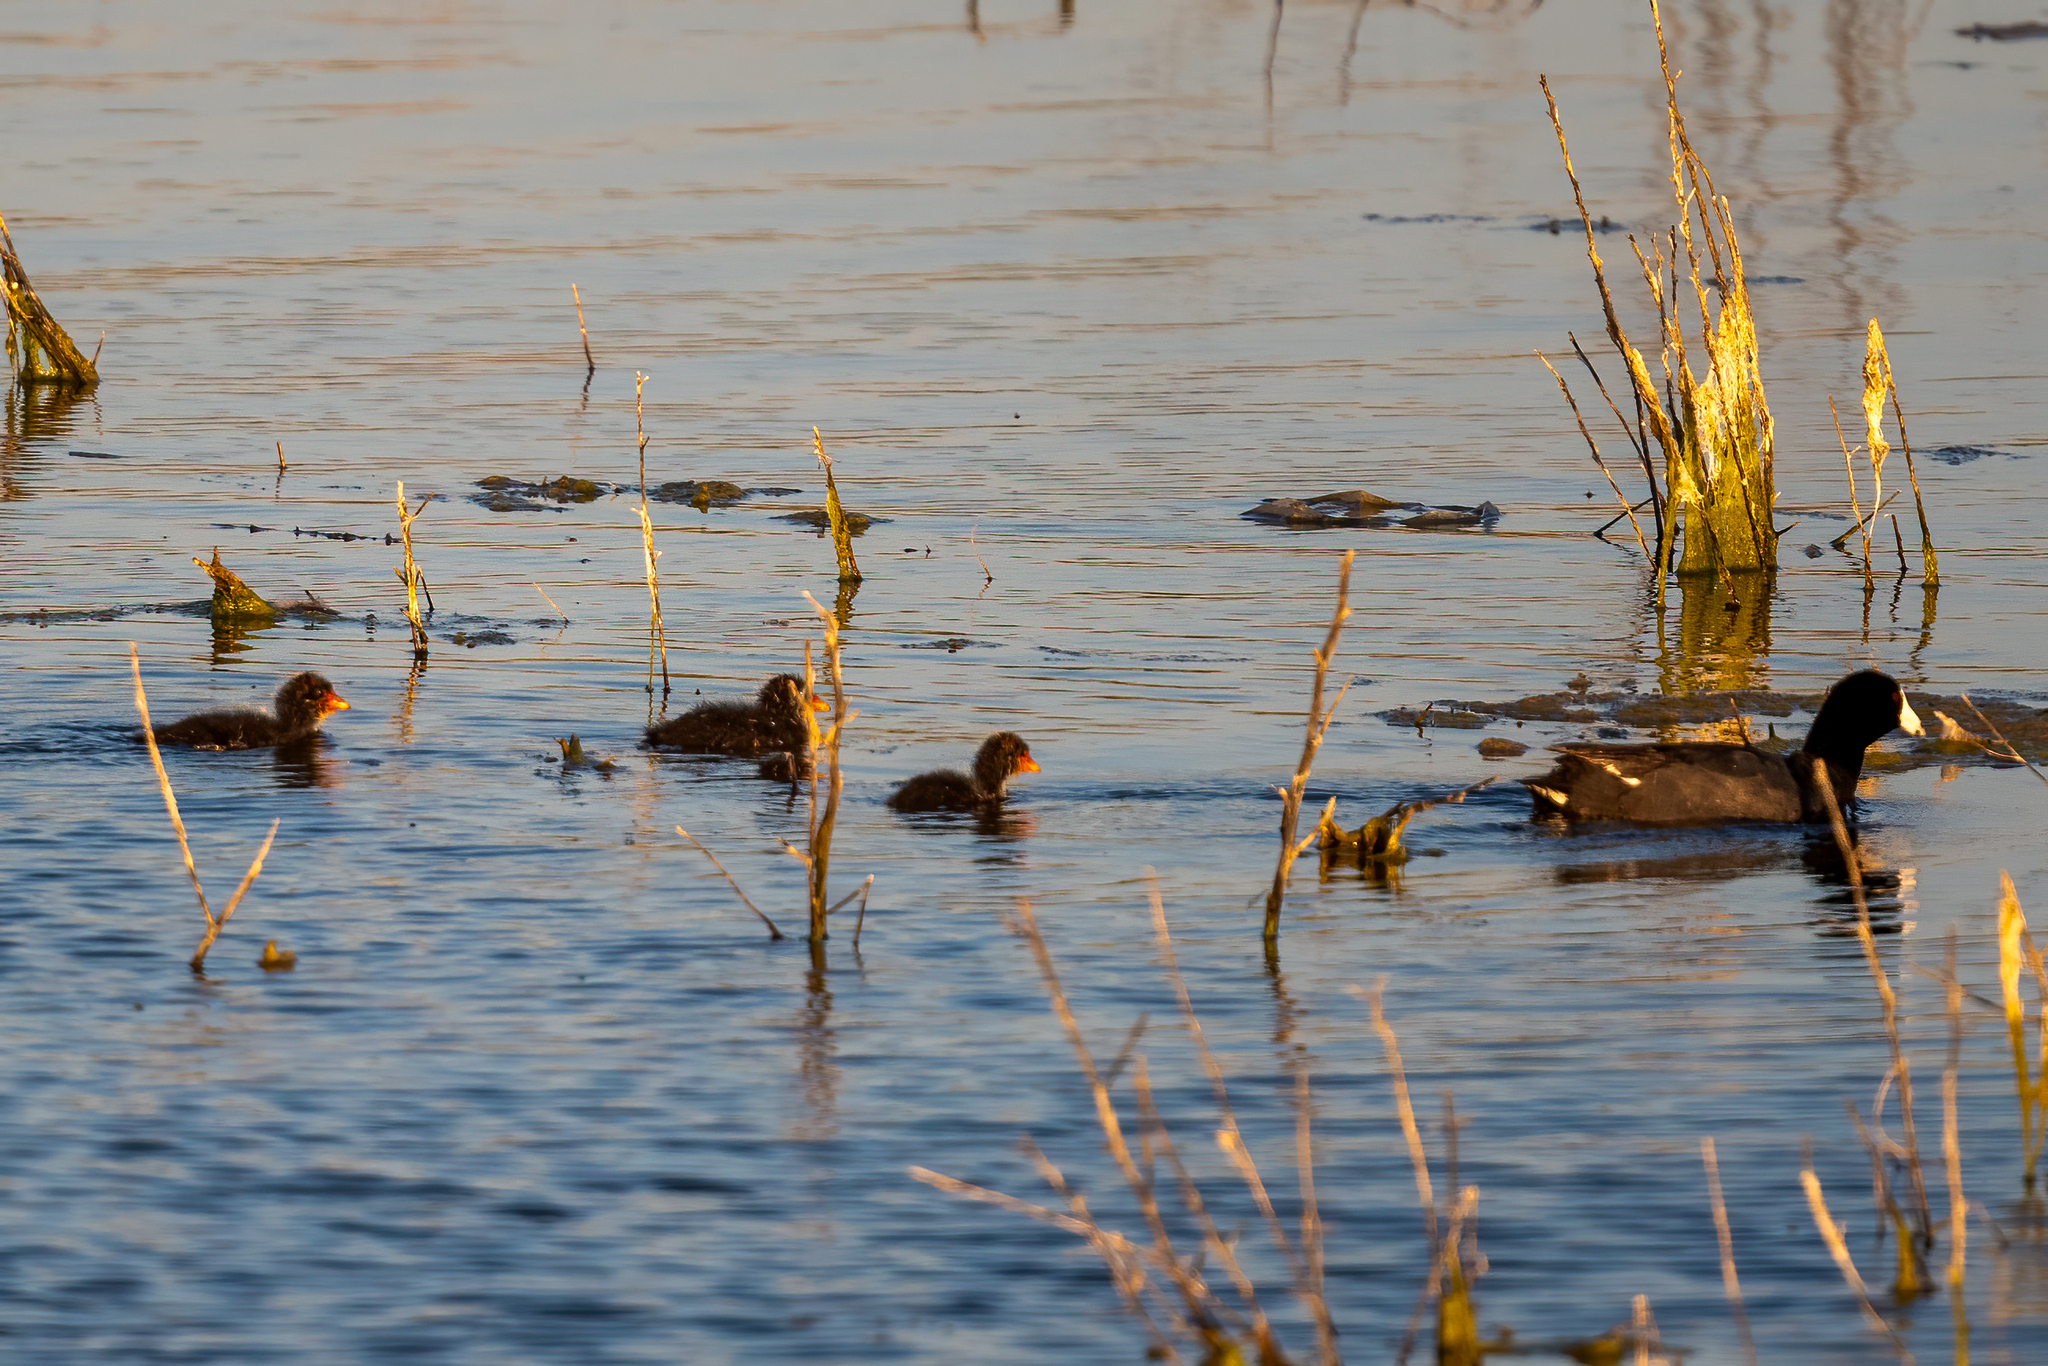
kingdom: Animalia
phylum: Chordata
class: Aves
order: Gruiformes
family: Rallidae
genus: Fulica
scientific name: Fulica americana
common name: American coot
